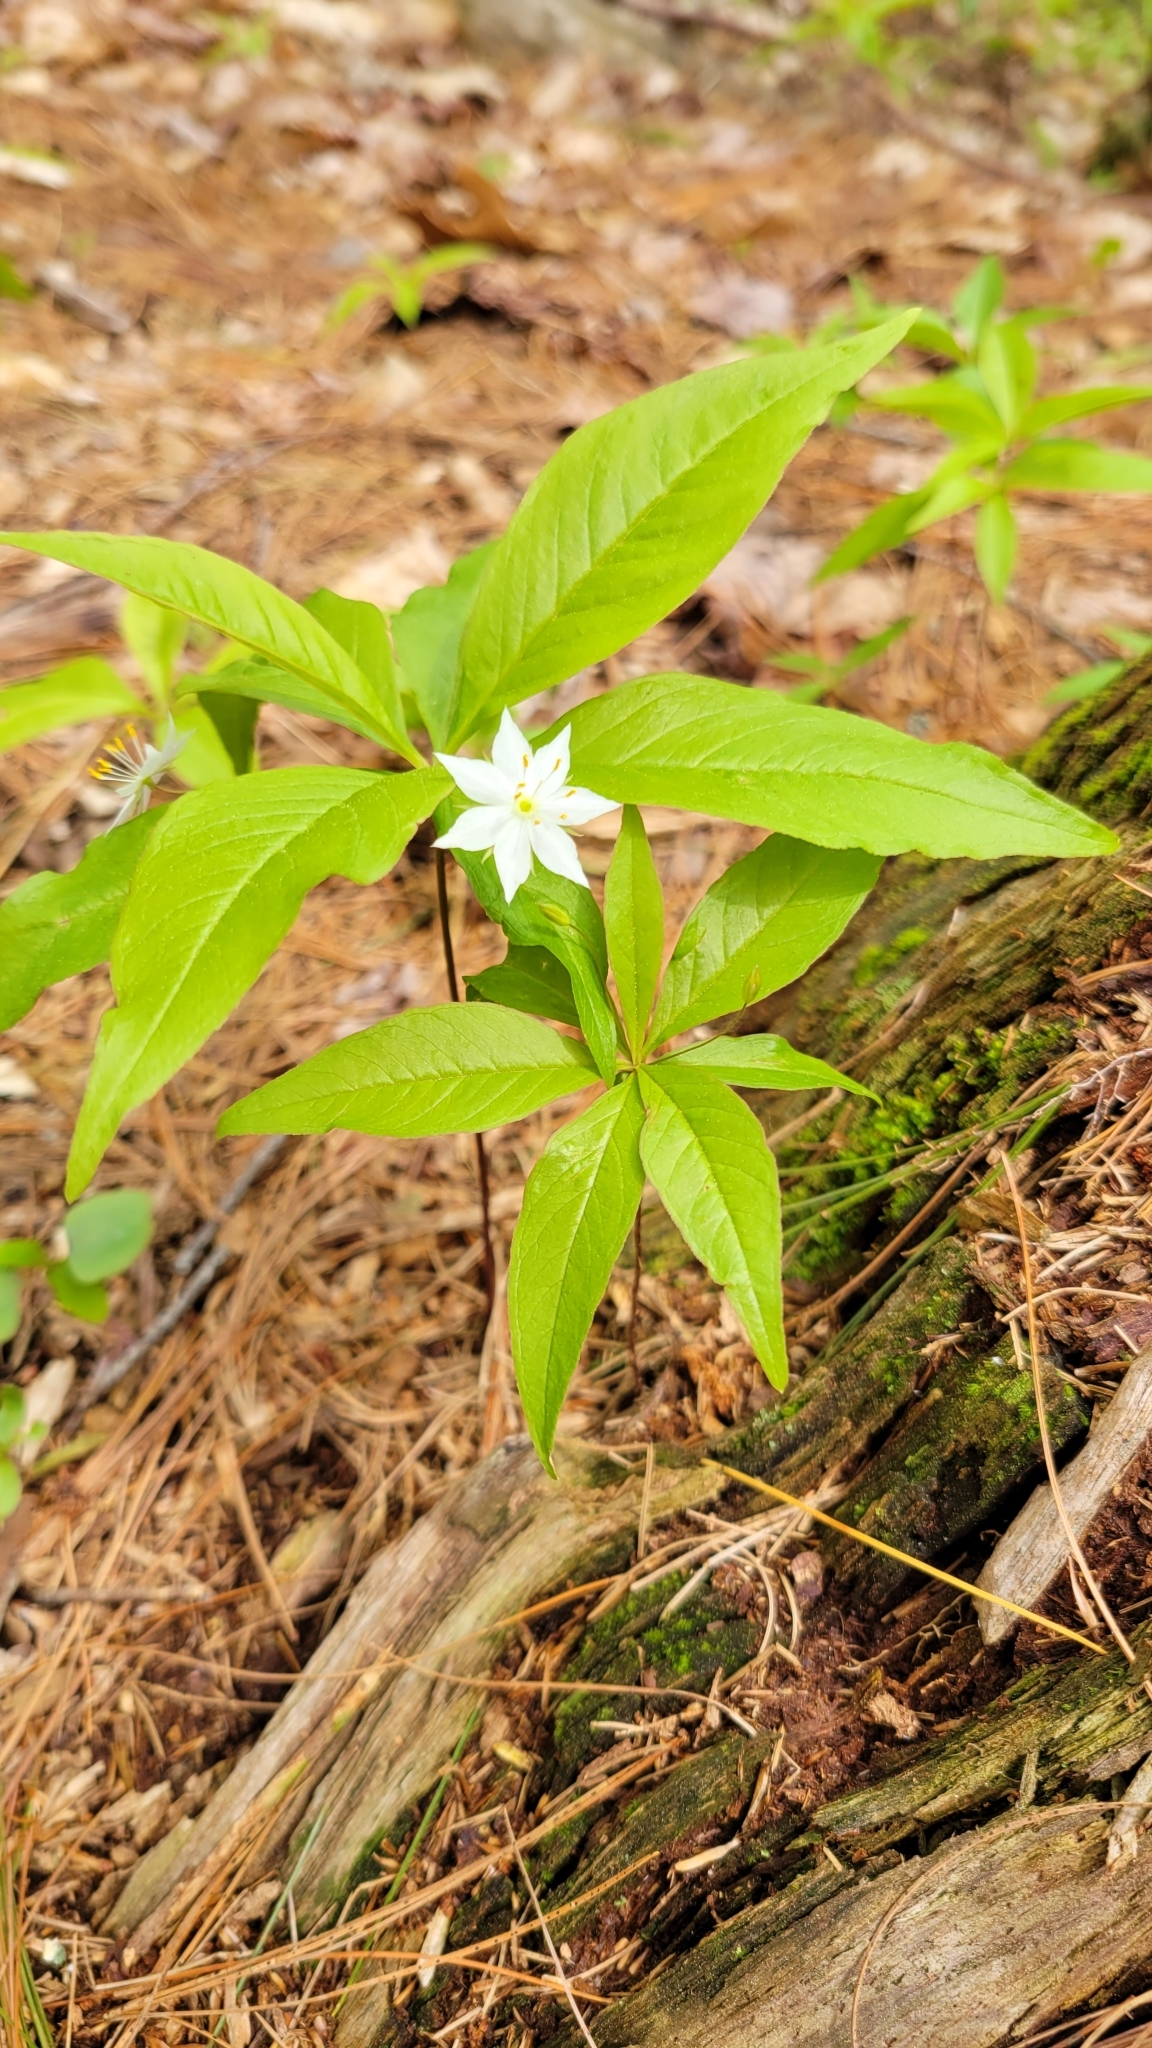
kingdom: Plantae
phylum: Tracheophyta
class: Magnoliopsida
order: Ericales
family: Primulaceae
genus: Lysimachia
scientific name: Lysimachia borealis
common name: American starflower
